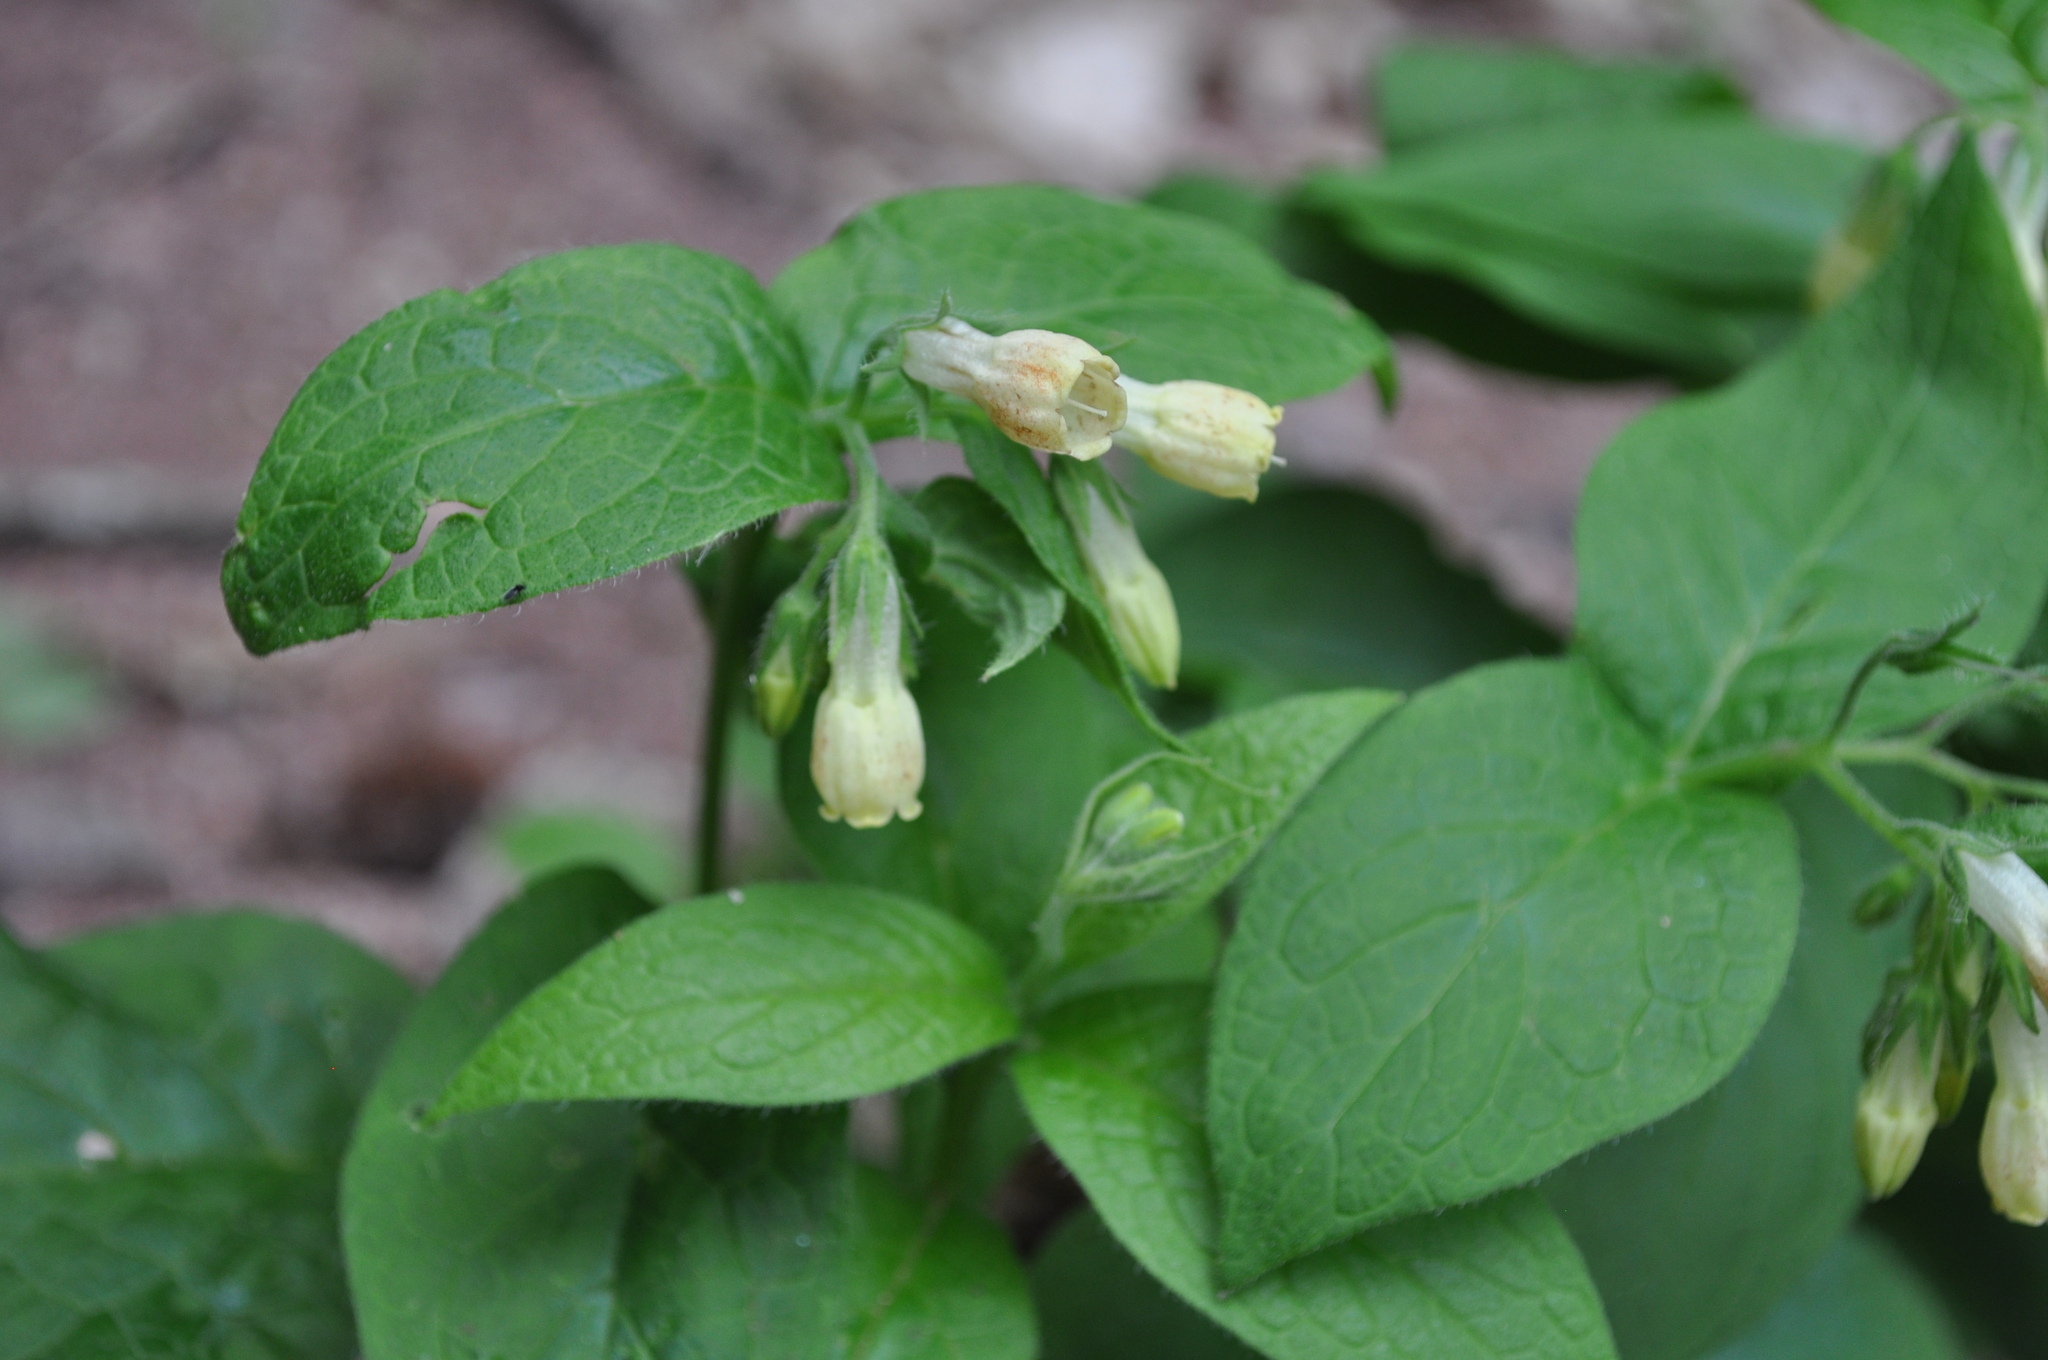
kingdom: Plantae
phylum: Tracheophyta
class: Magnoliopsida
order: Boraginales
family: Boraginaceae
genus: Symphytum
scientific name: Symphytum tuberosum
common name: Tuberous comfrey
